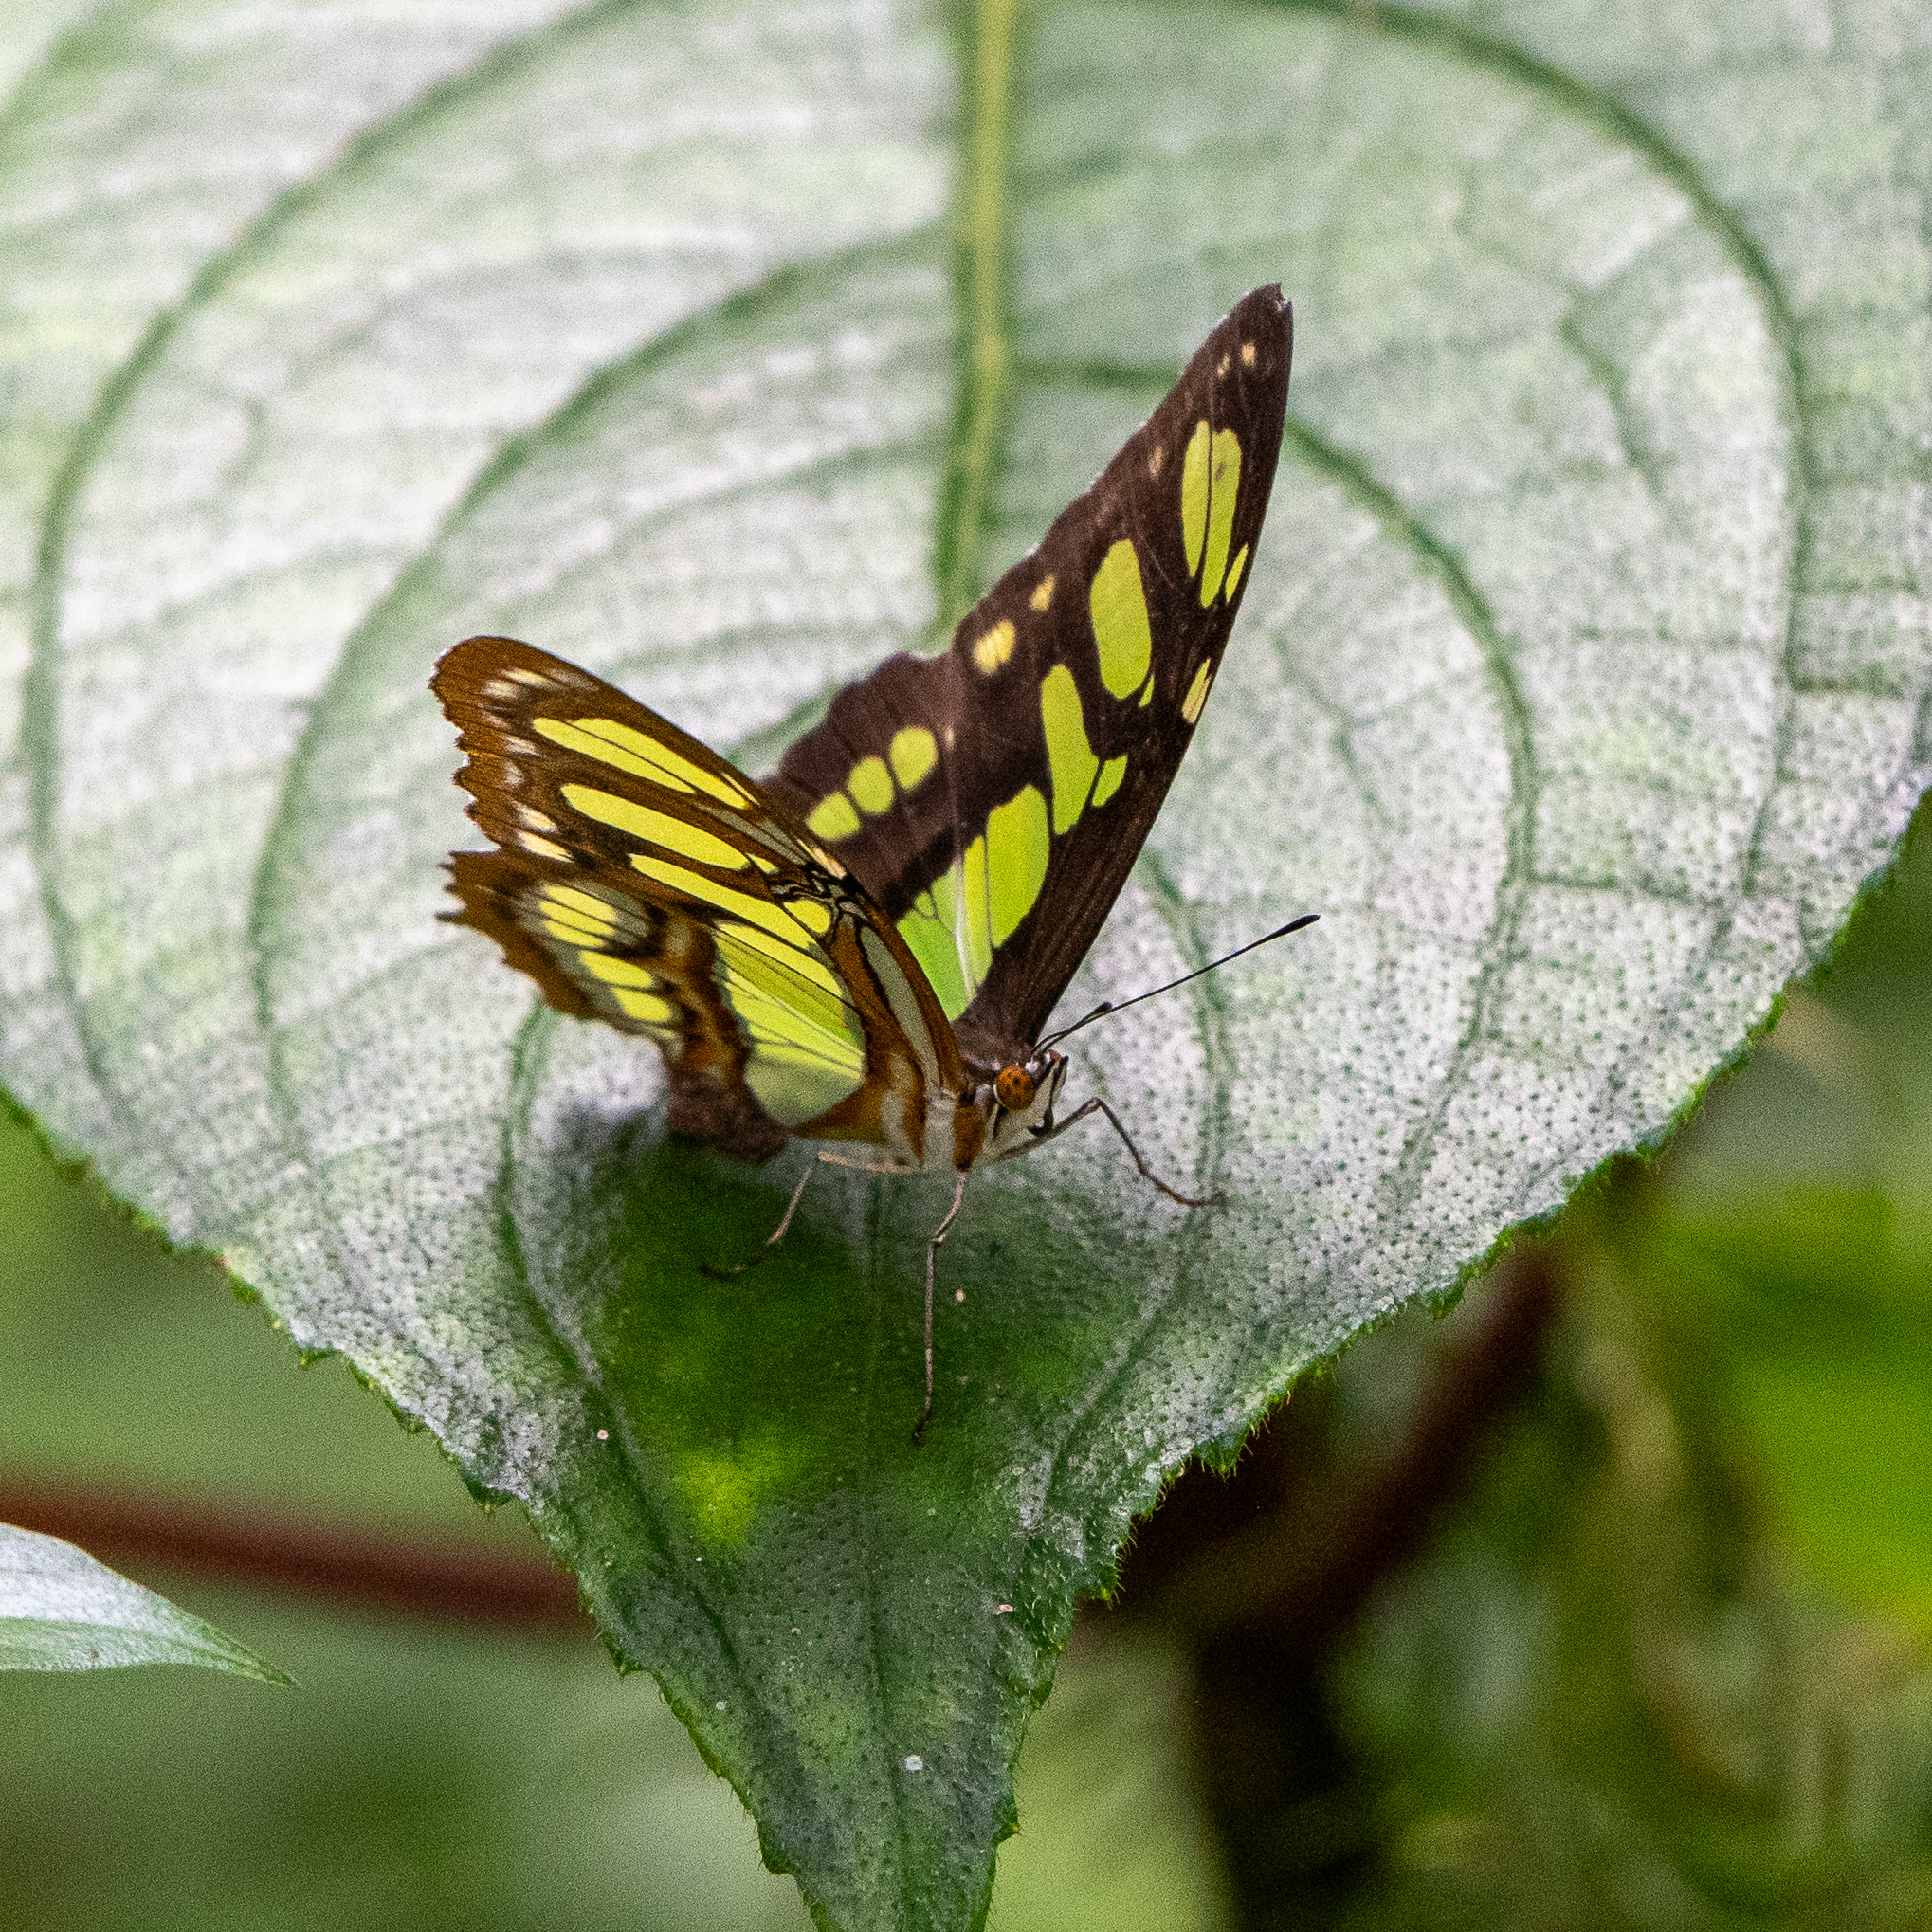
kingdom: Animalia
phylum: Arthropoda
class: Insecta
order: Lepidoptera
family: Nymphalidae
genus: Siproeta
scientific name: Siproeta stelenes
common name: Malachite
